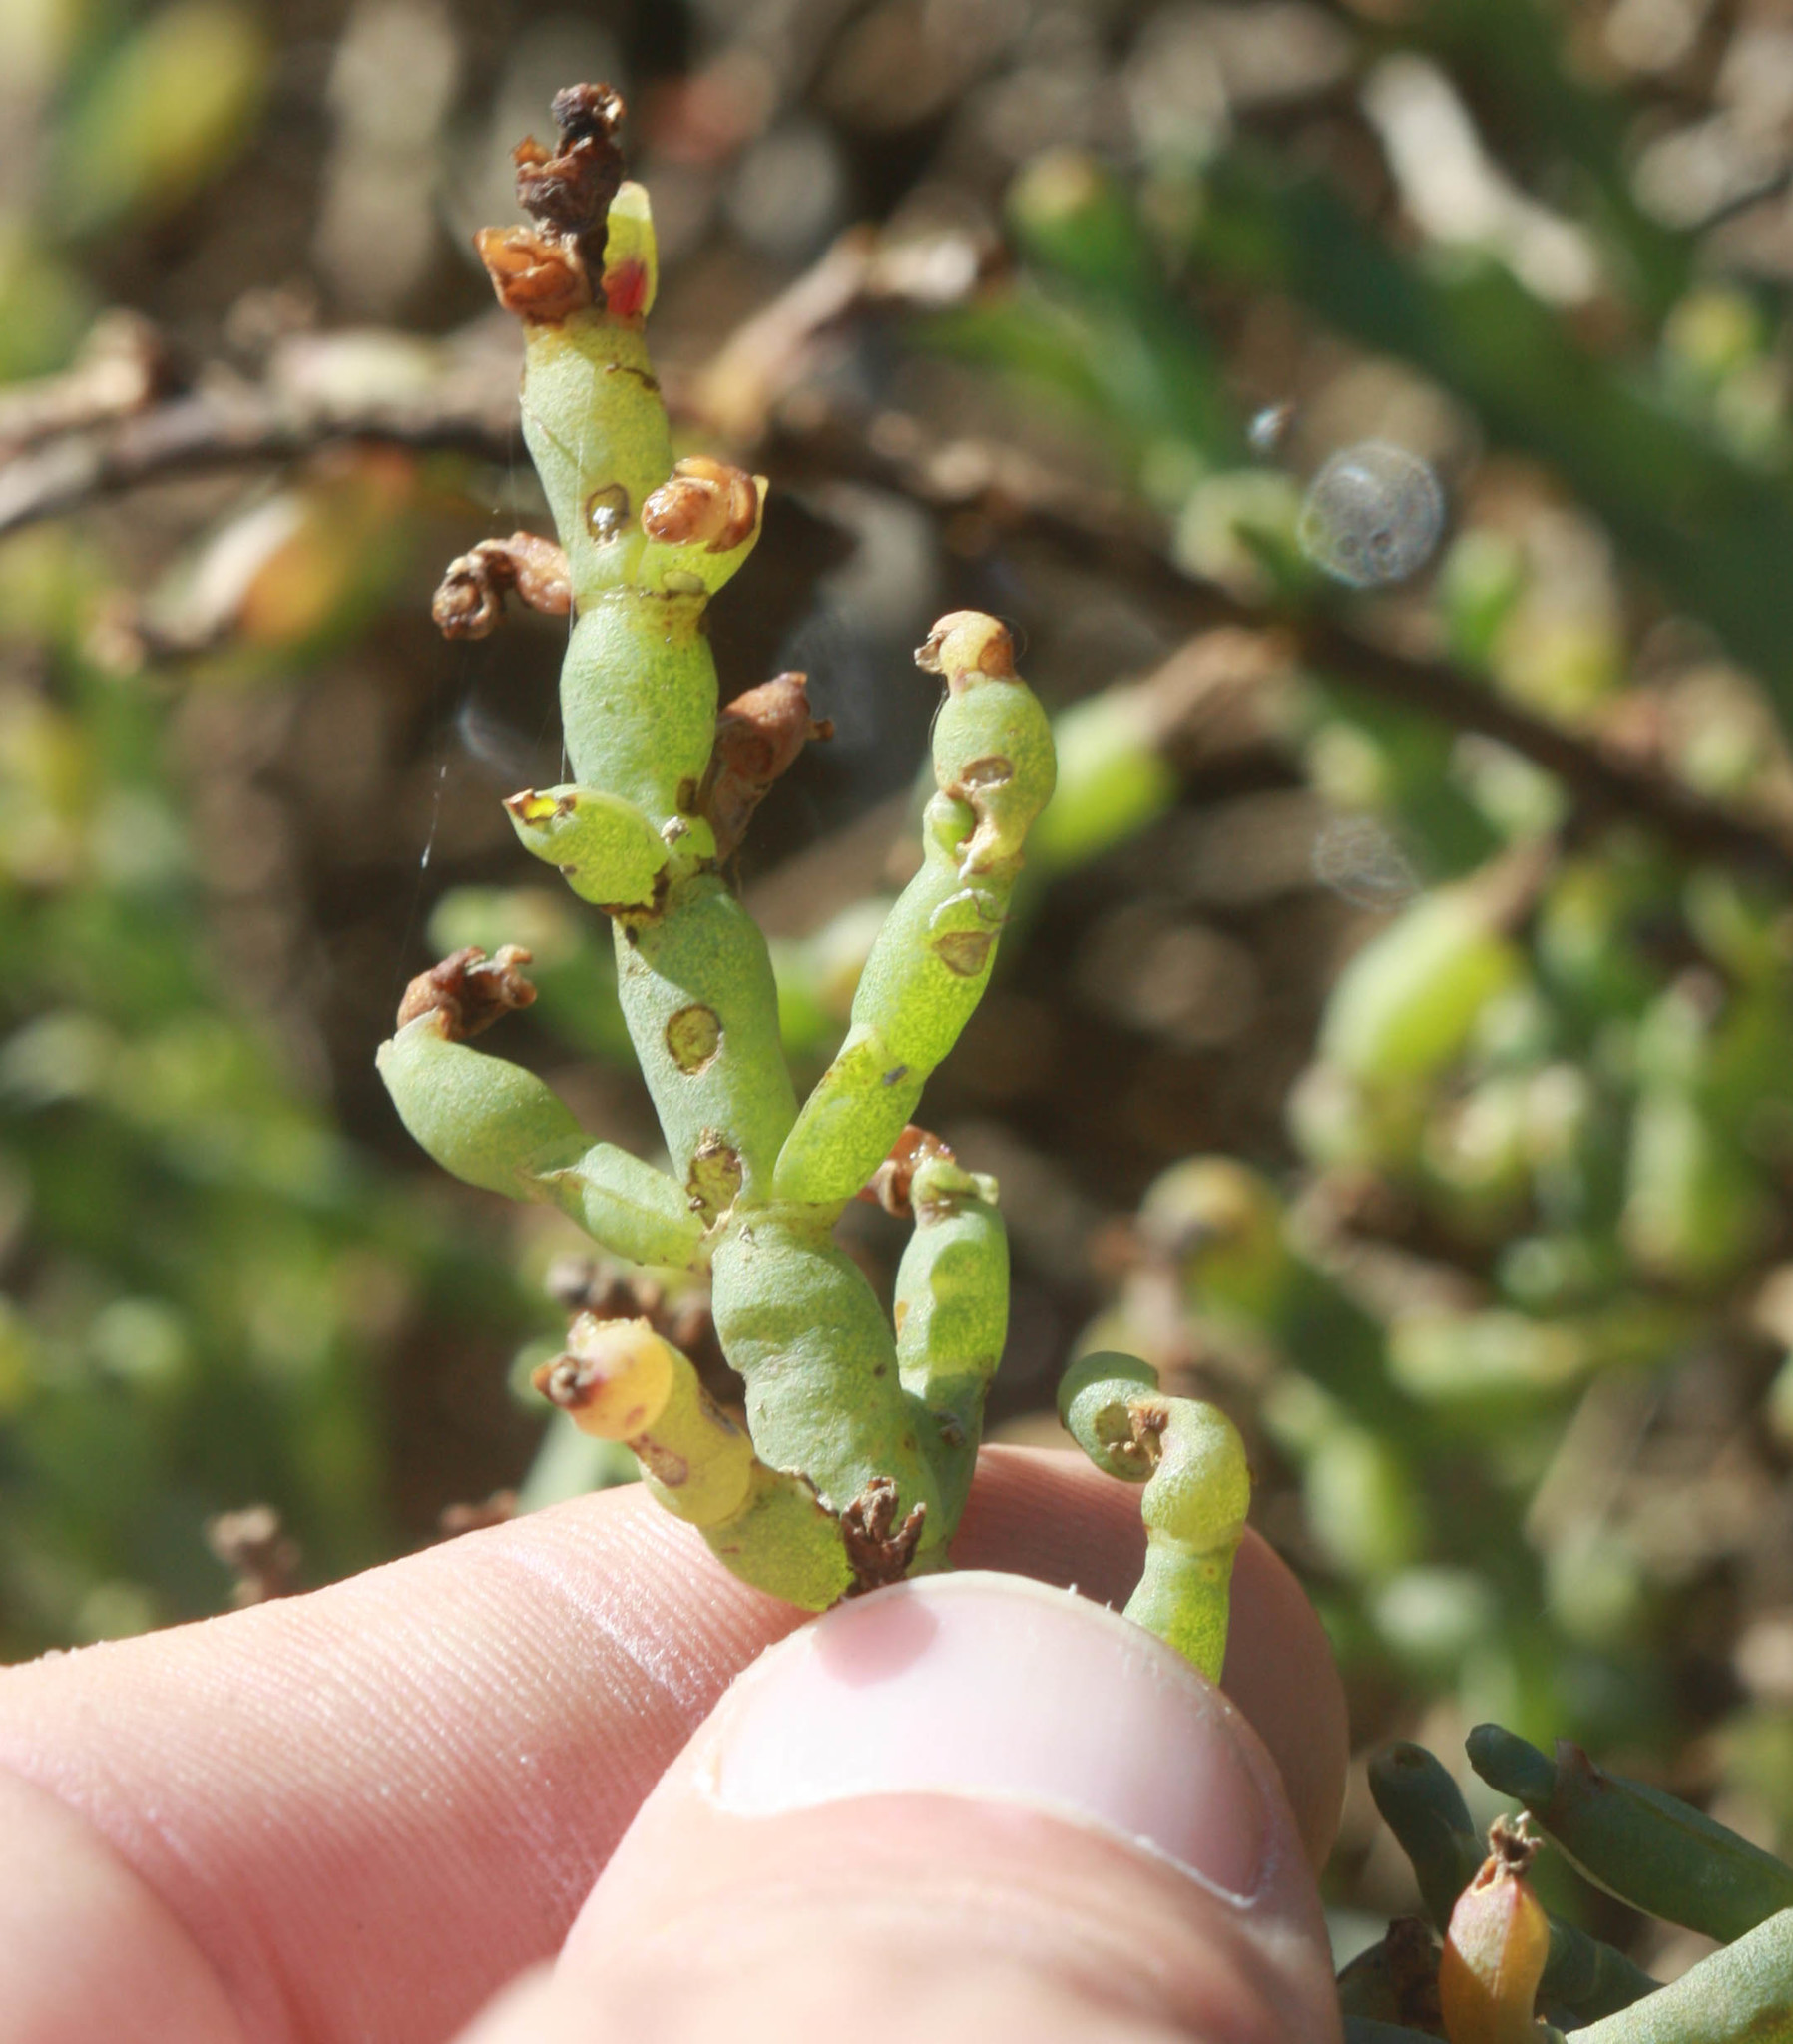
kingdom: Plantae
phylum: Tracheophyta
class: Magnoliopsida
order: Caryophyllales
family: Amaranthaceae
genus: Salicornia
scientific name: Salicornia pacifica
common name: Pacific glasswort
